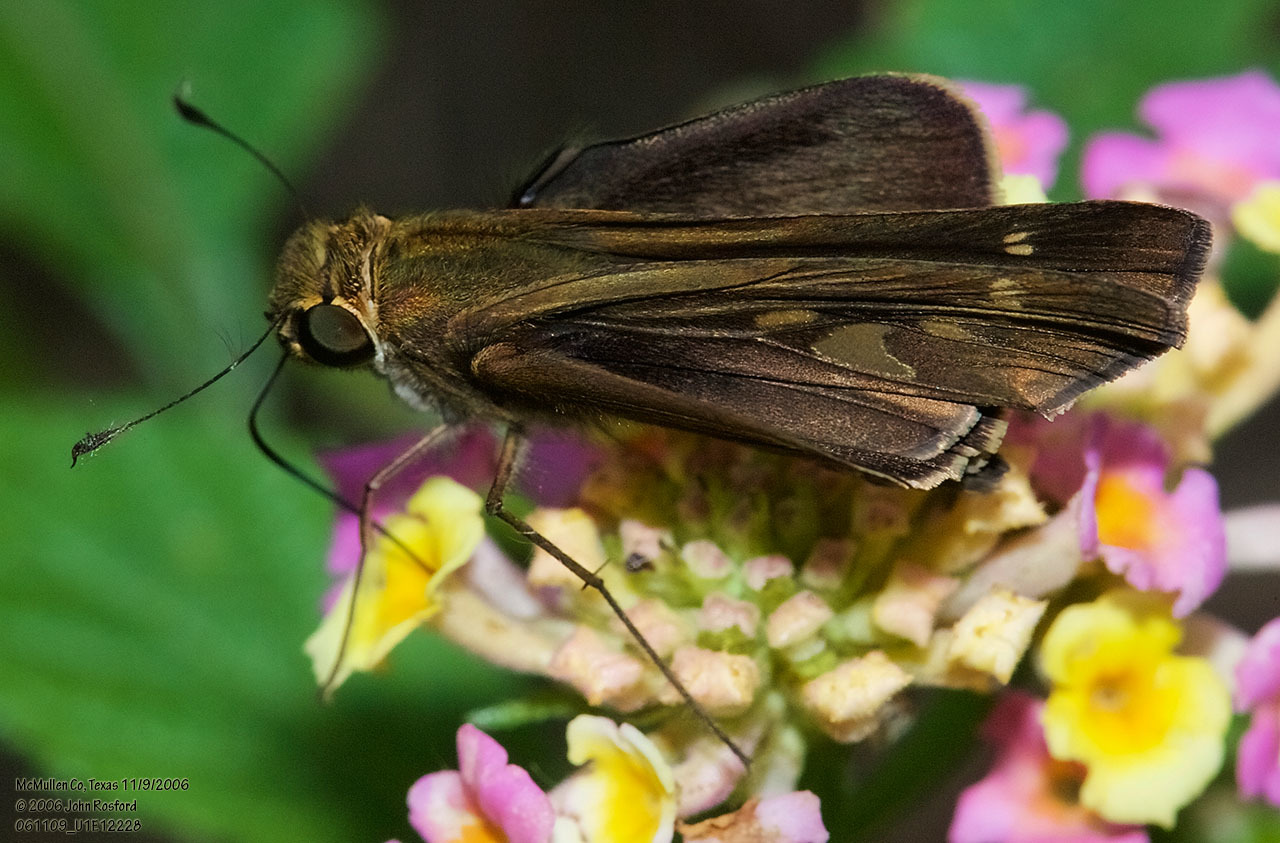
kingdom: Animalia
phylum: Arthropoda
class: Insecta
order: Lepidoptera
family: Hesperiidae
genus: Turesis
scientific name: Turesis lucas
